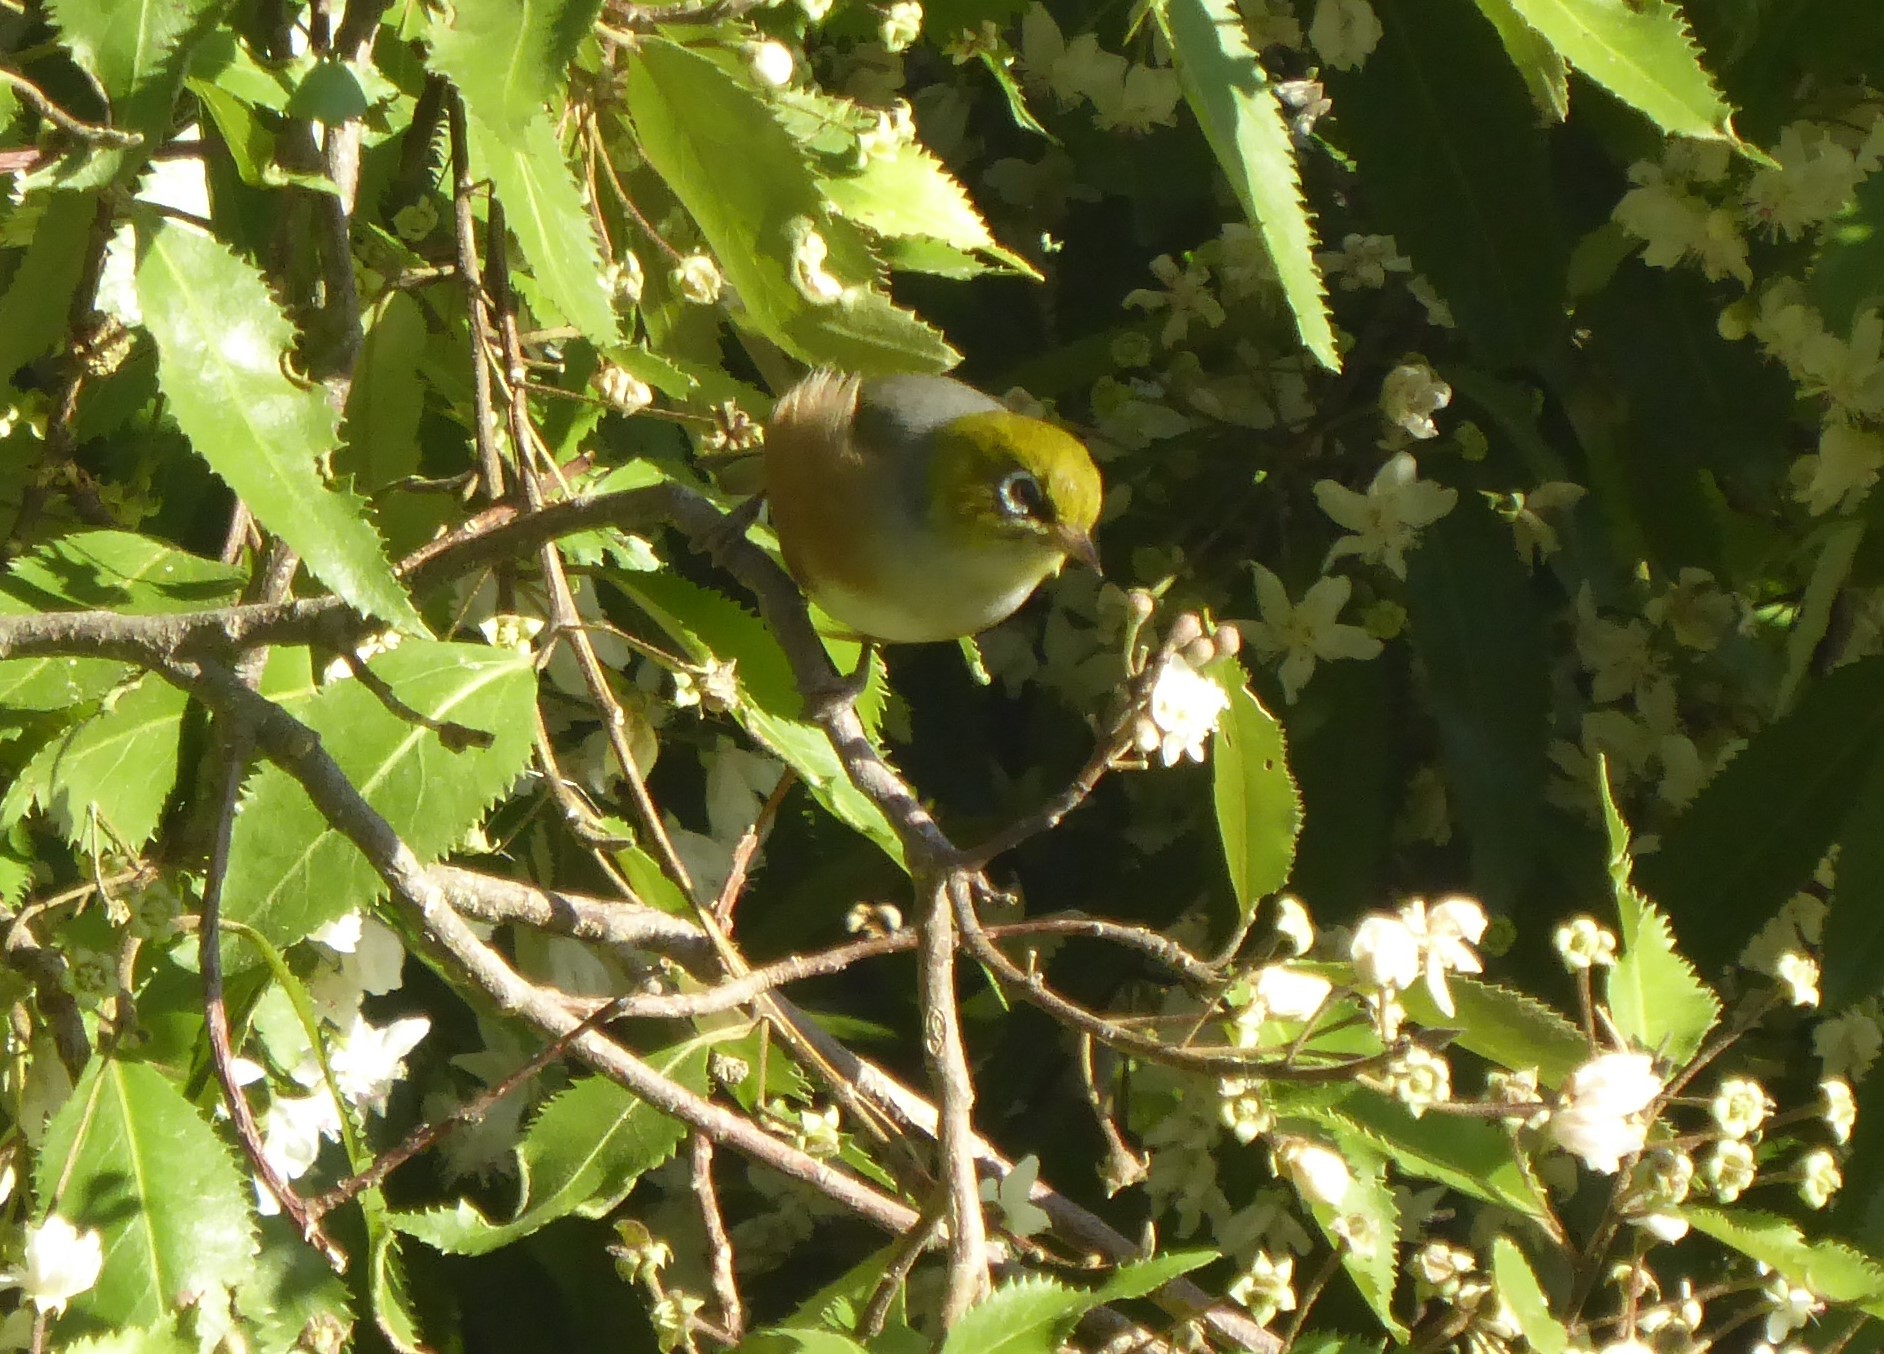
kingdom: Animalia
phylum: Chordata
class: Aves
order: Passeriformes
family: Zosteropidae
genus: Zosterops
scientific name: Zosterops lateralis
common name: Silvereye
